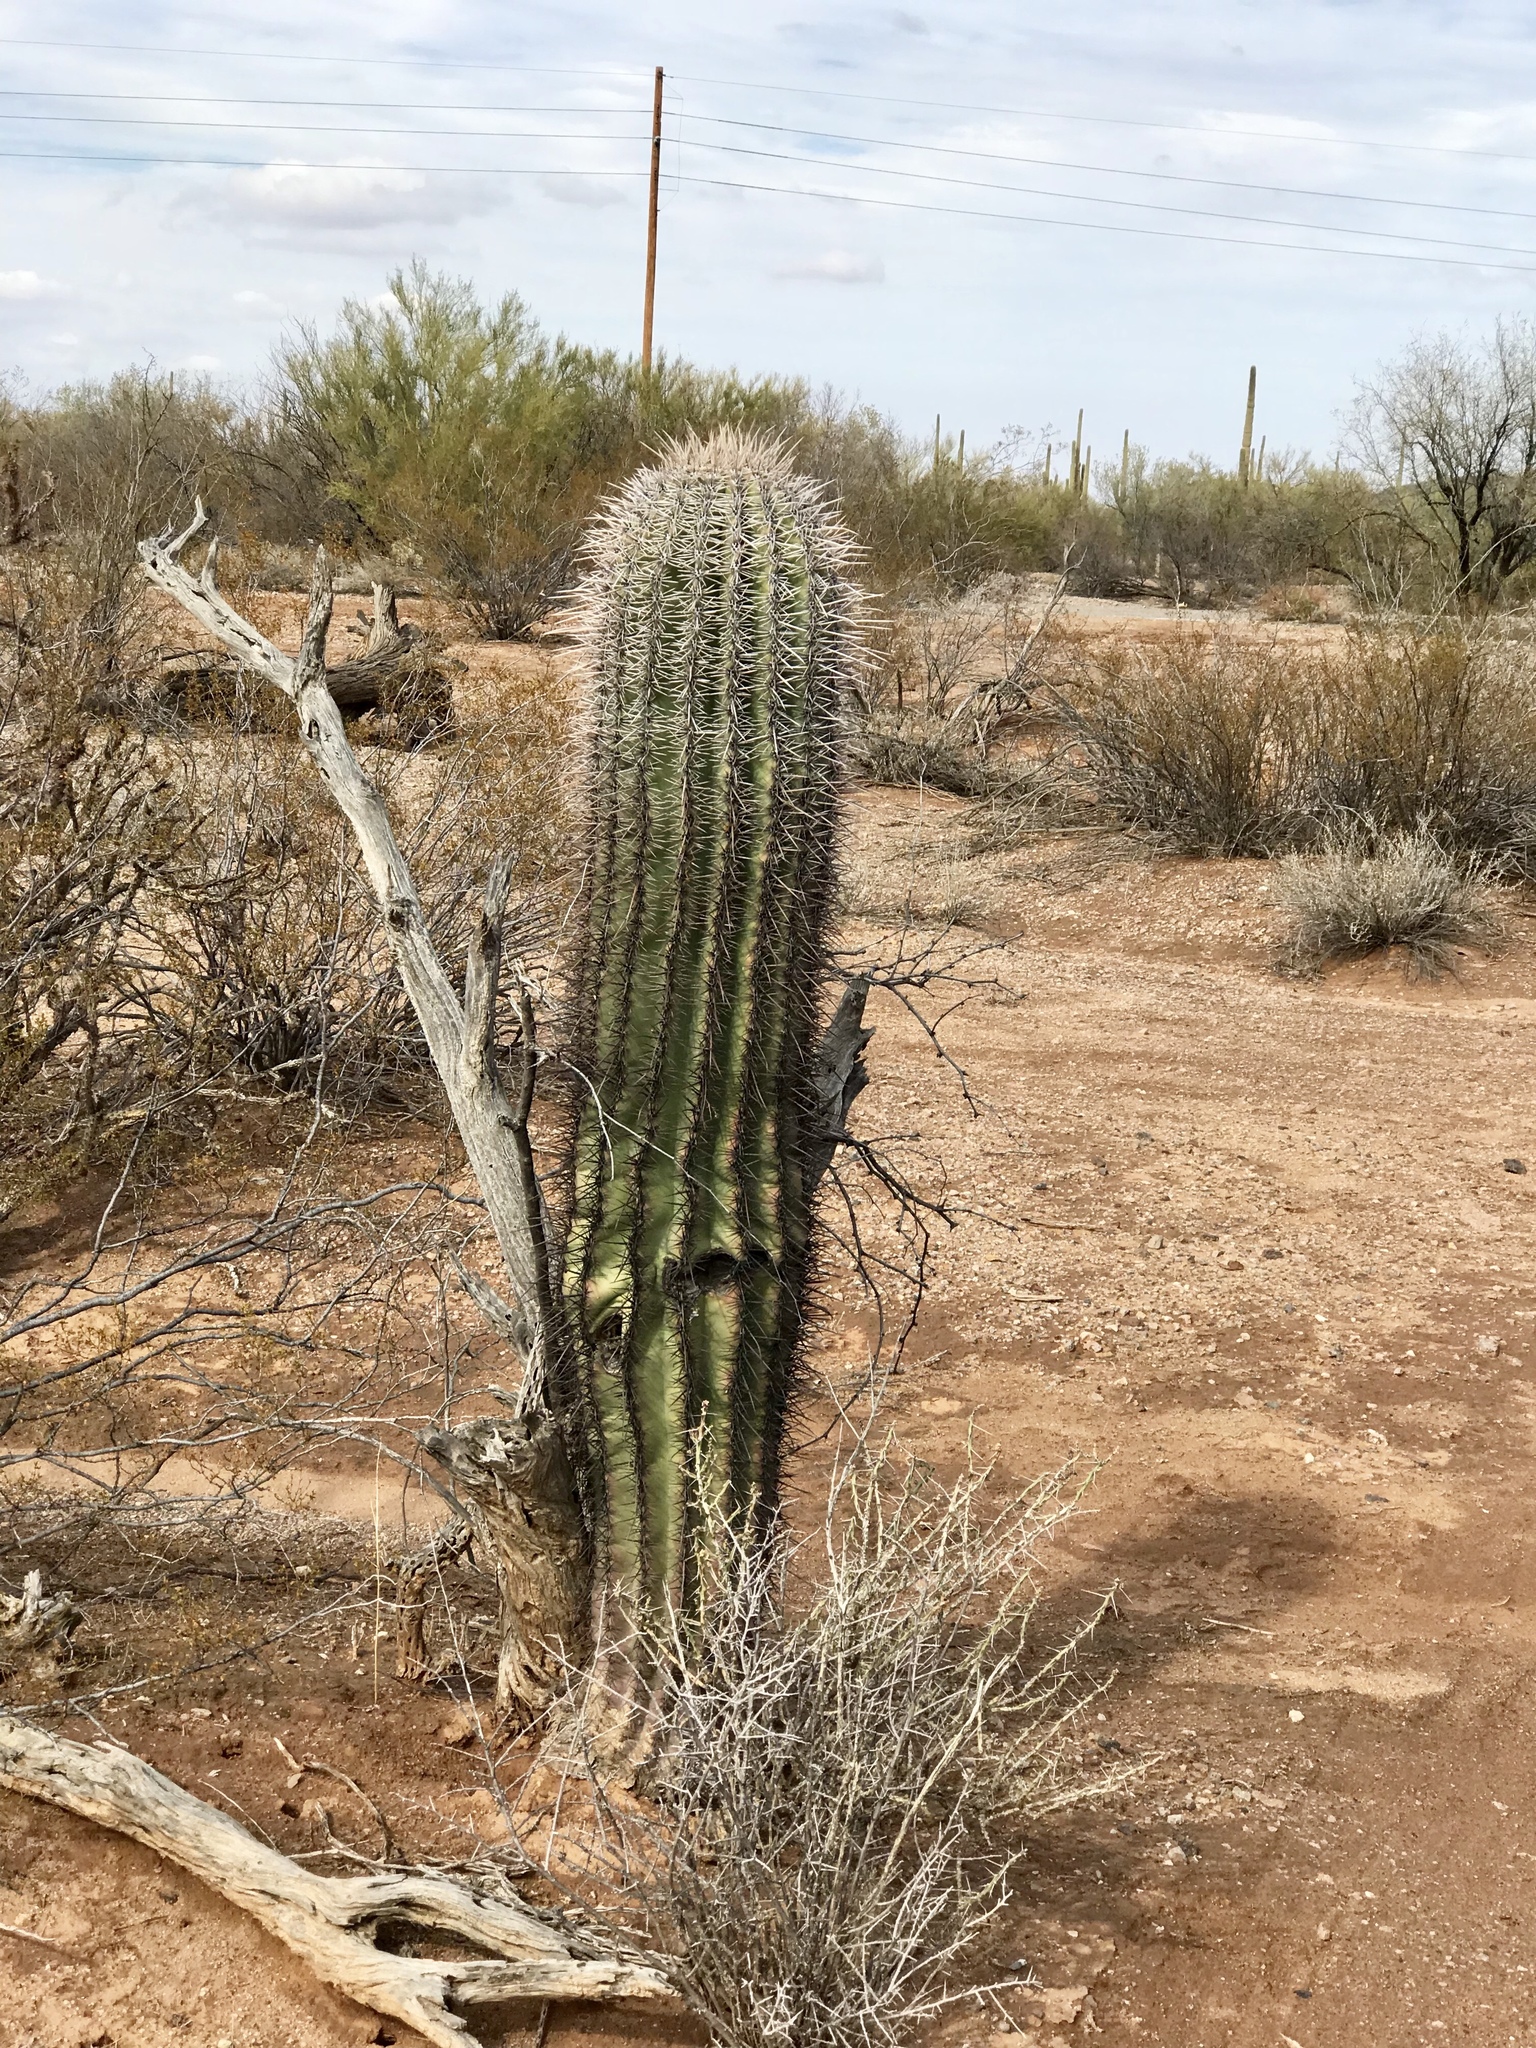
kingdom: Plantae
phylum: Tracheophyta
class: Magnoliopsida
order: Caryophyllales
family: Cactaceae
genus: Carnegiea
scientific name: Carnegiea gigantea
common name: Saguaro
